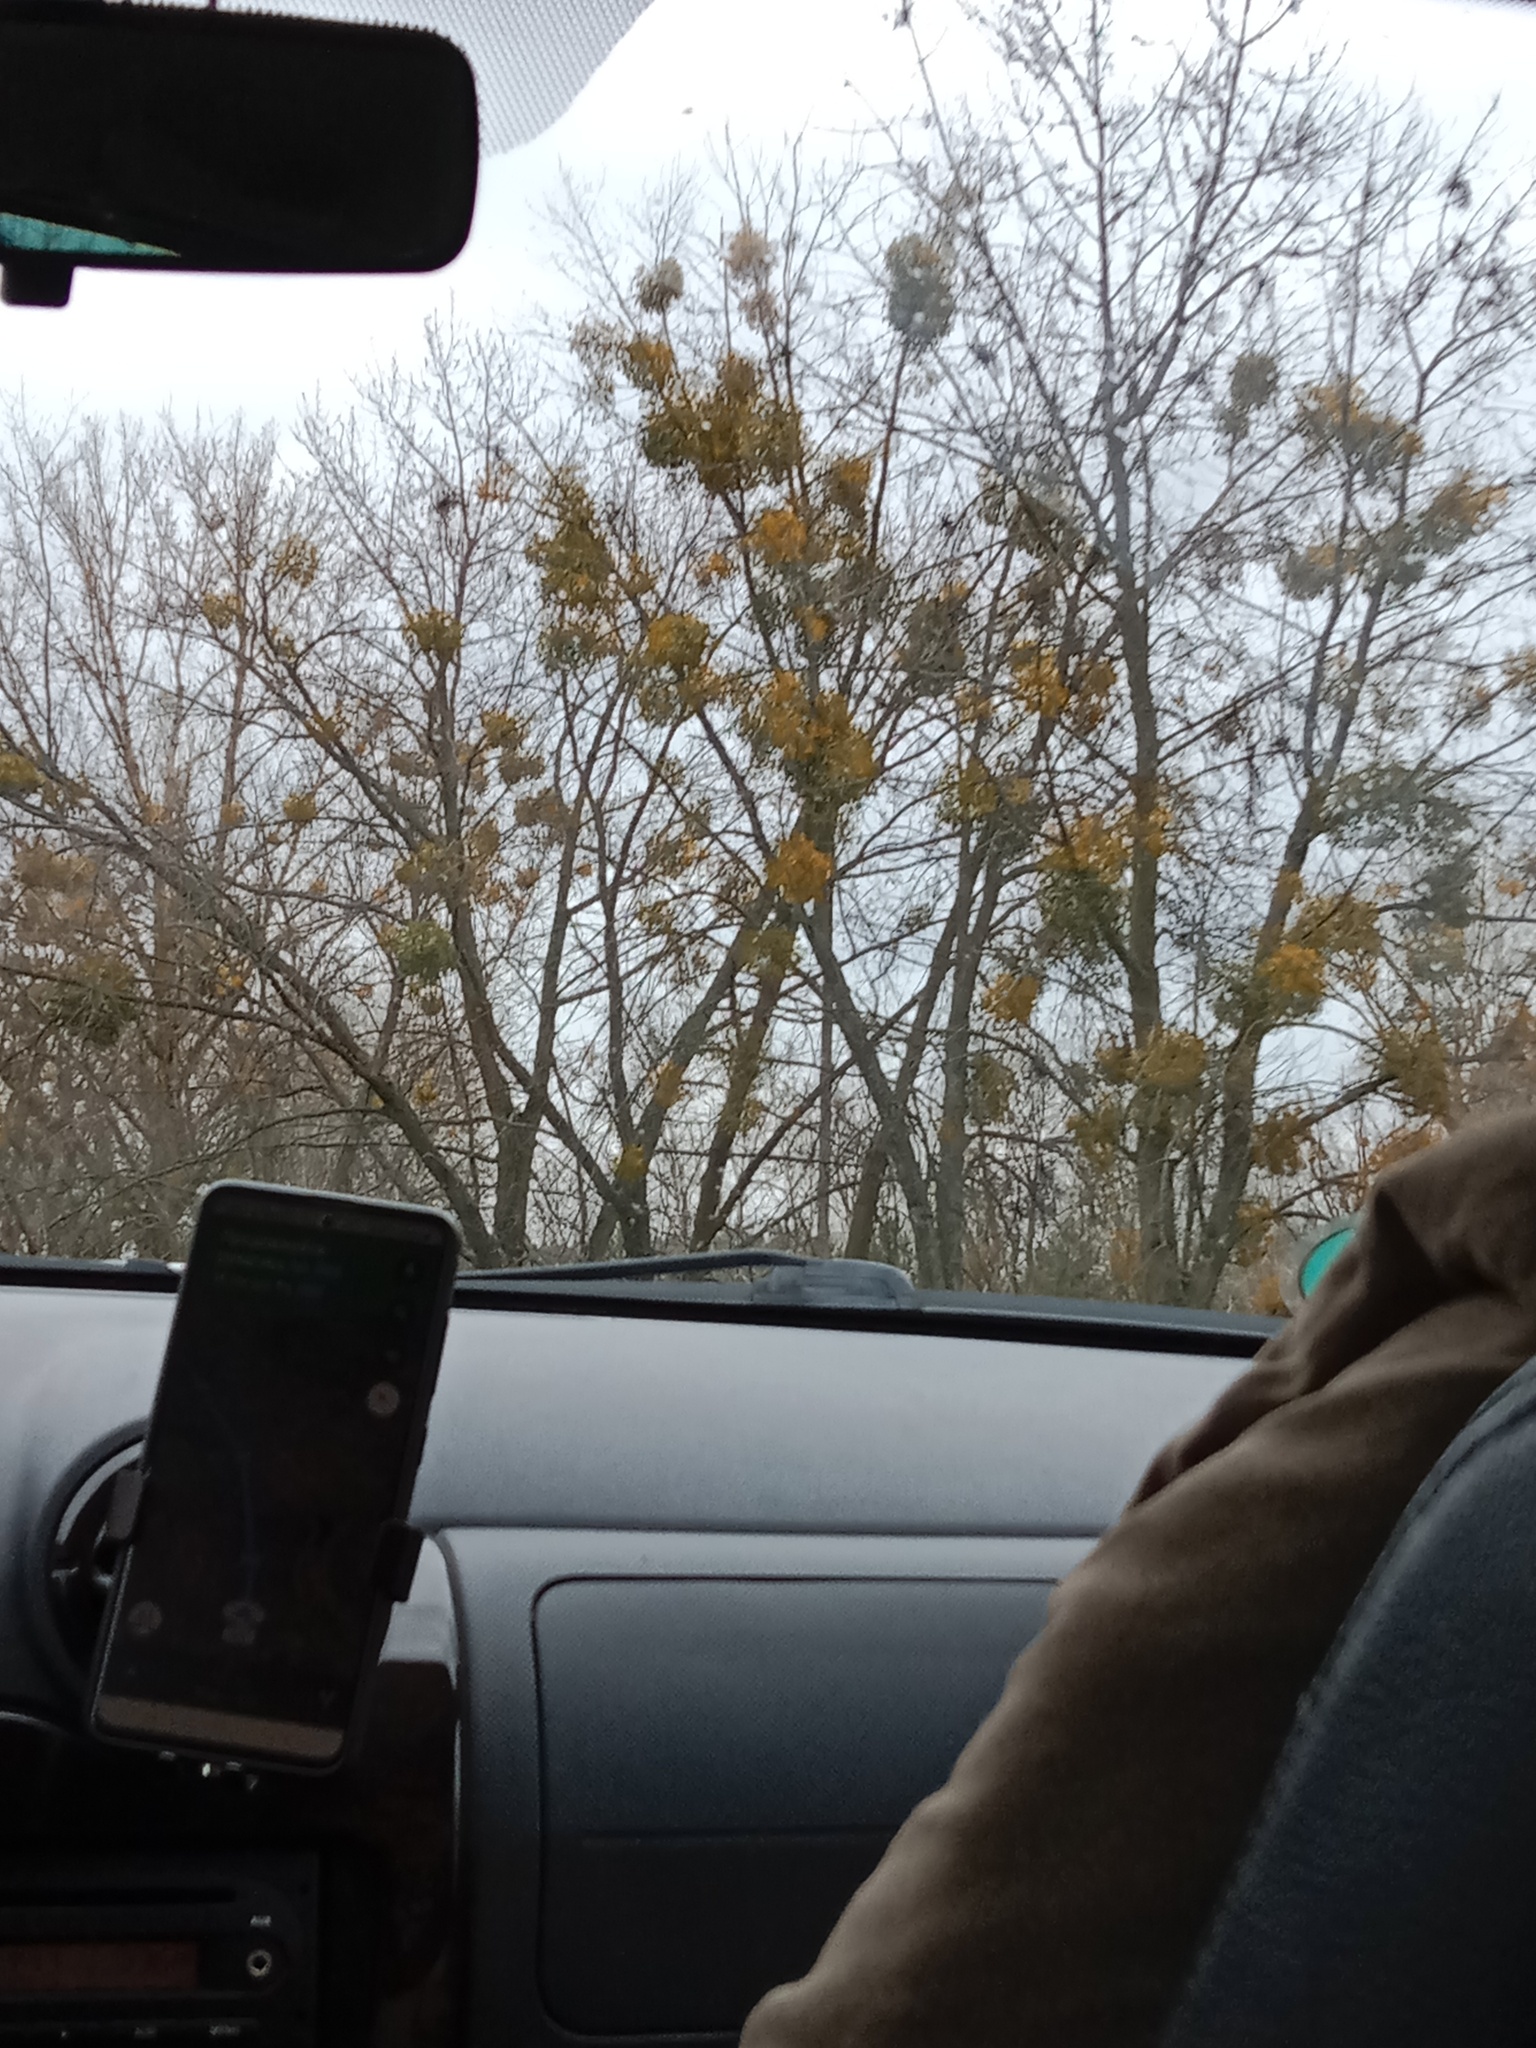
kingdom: Plantae
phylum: Tracheophyta
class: Magnoliopsida
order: Santalales
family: Viscaceae
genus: Viscum
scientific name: Viscum album
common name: Mistletoe
